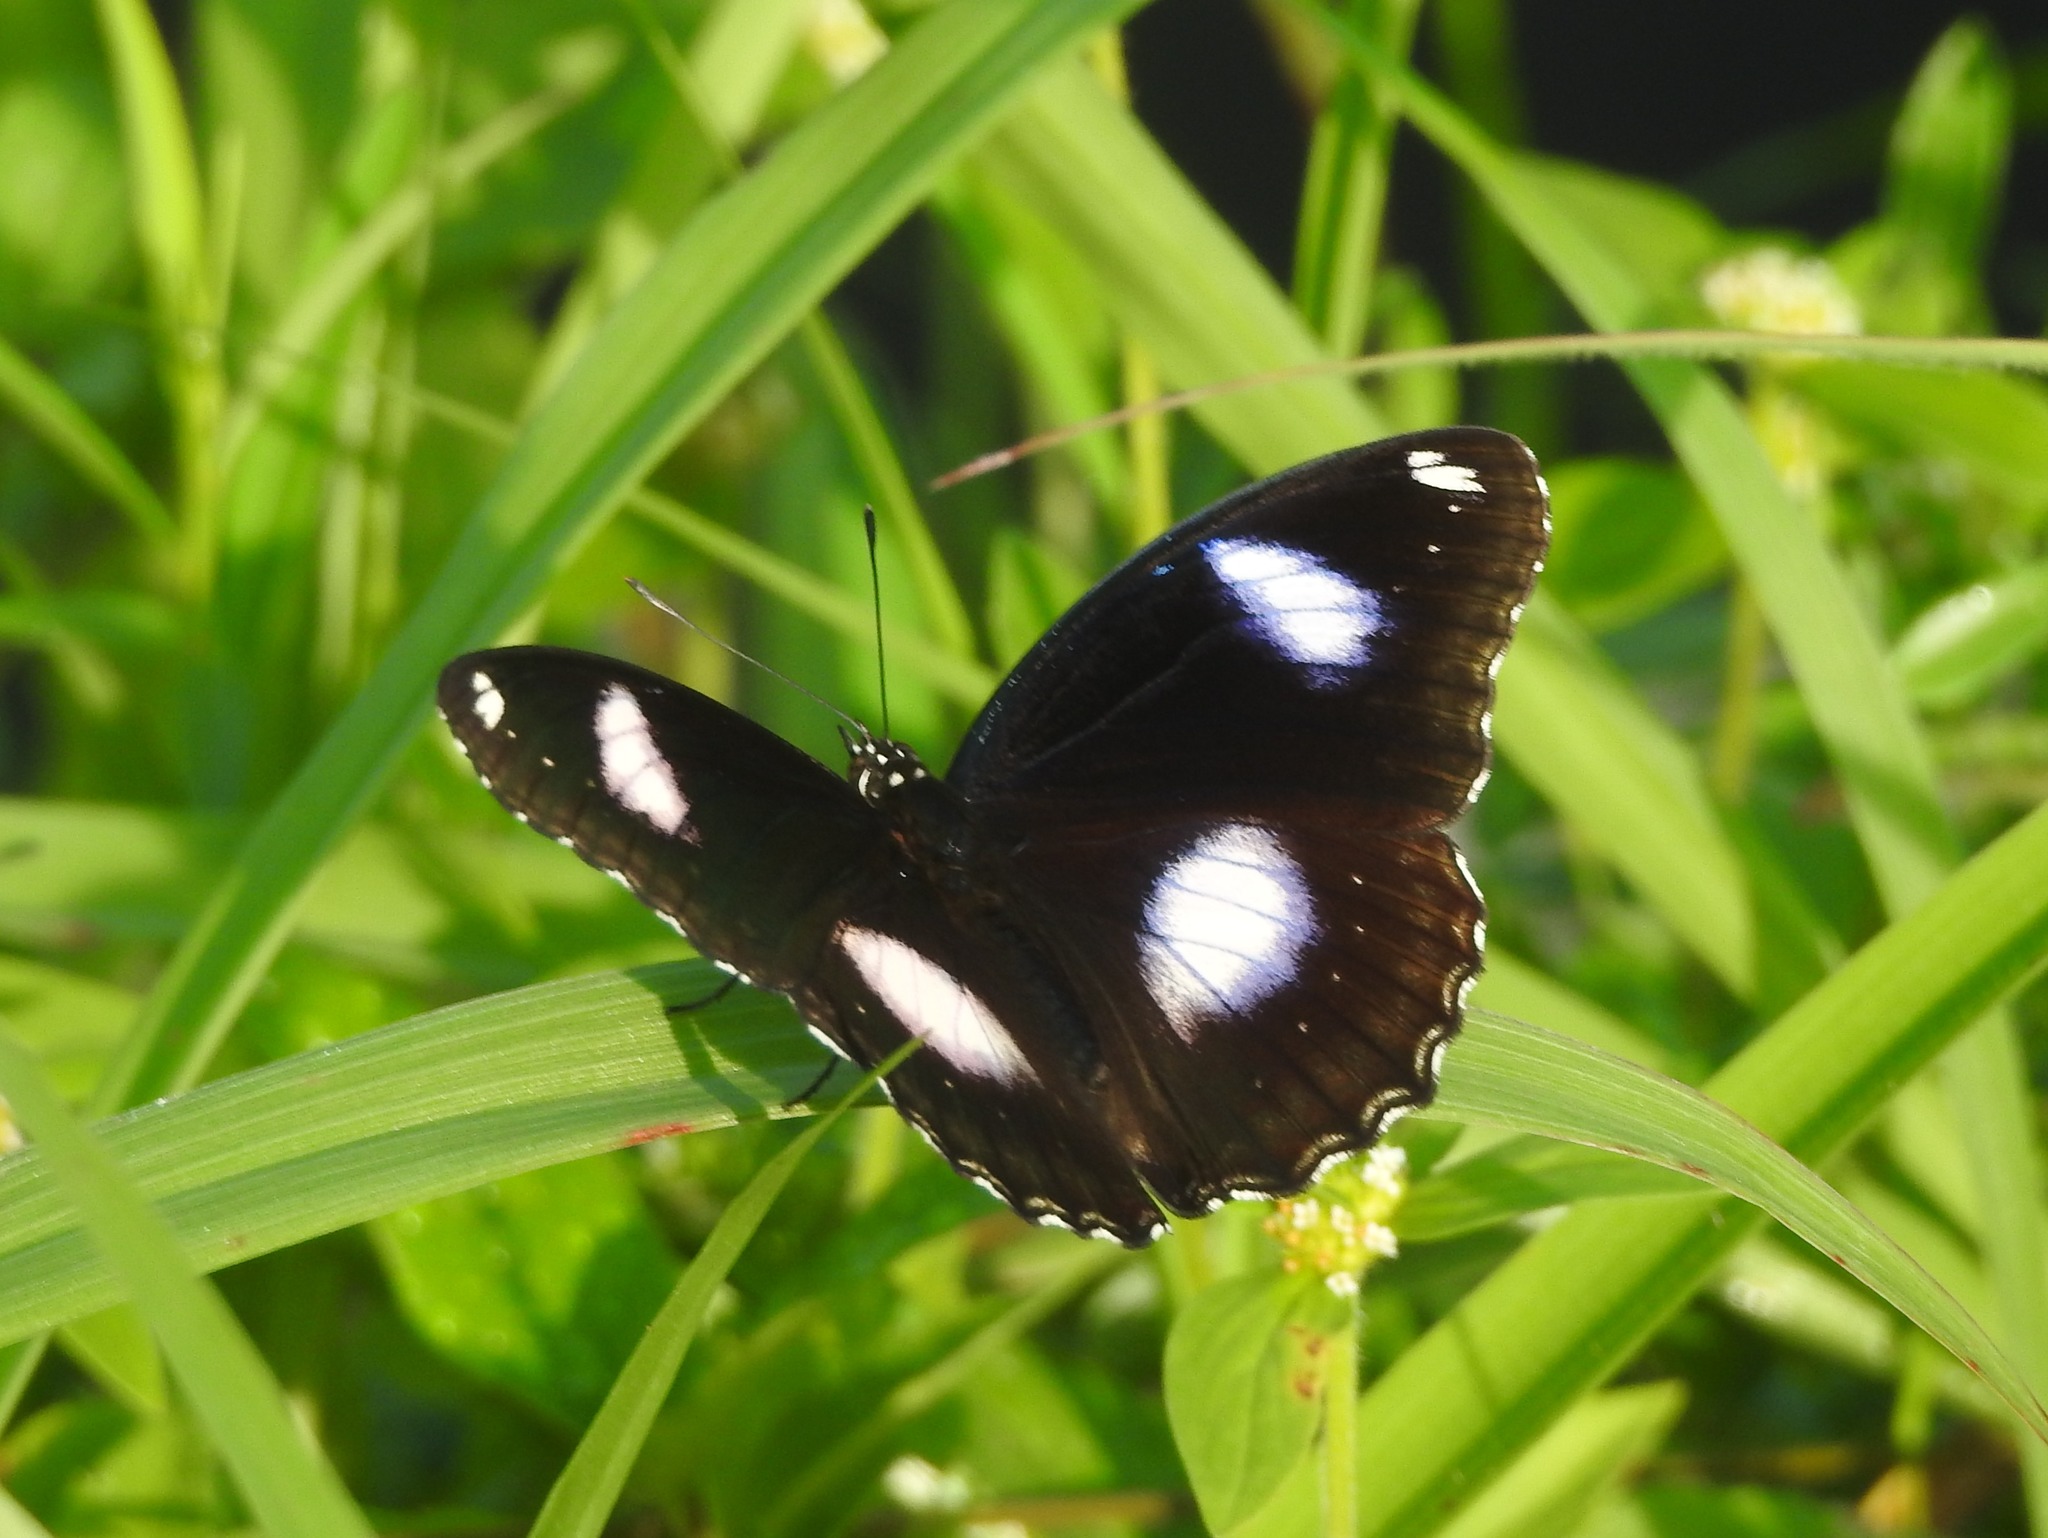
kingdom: Animalia
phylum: Arthropoda
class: Insecta
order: Lepidoptera
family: Nymphalidae
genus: Hypolimnas
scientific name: Hypolimnas bolina
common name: Great eggfly
